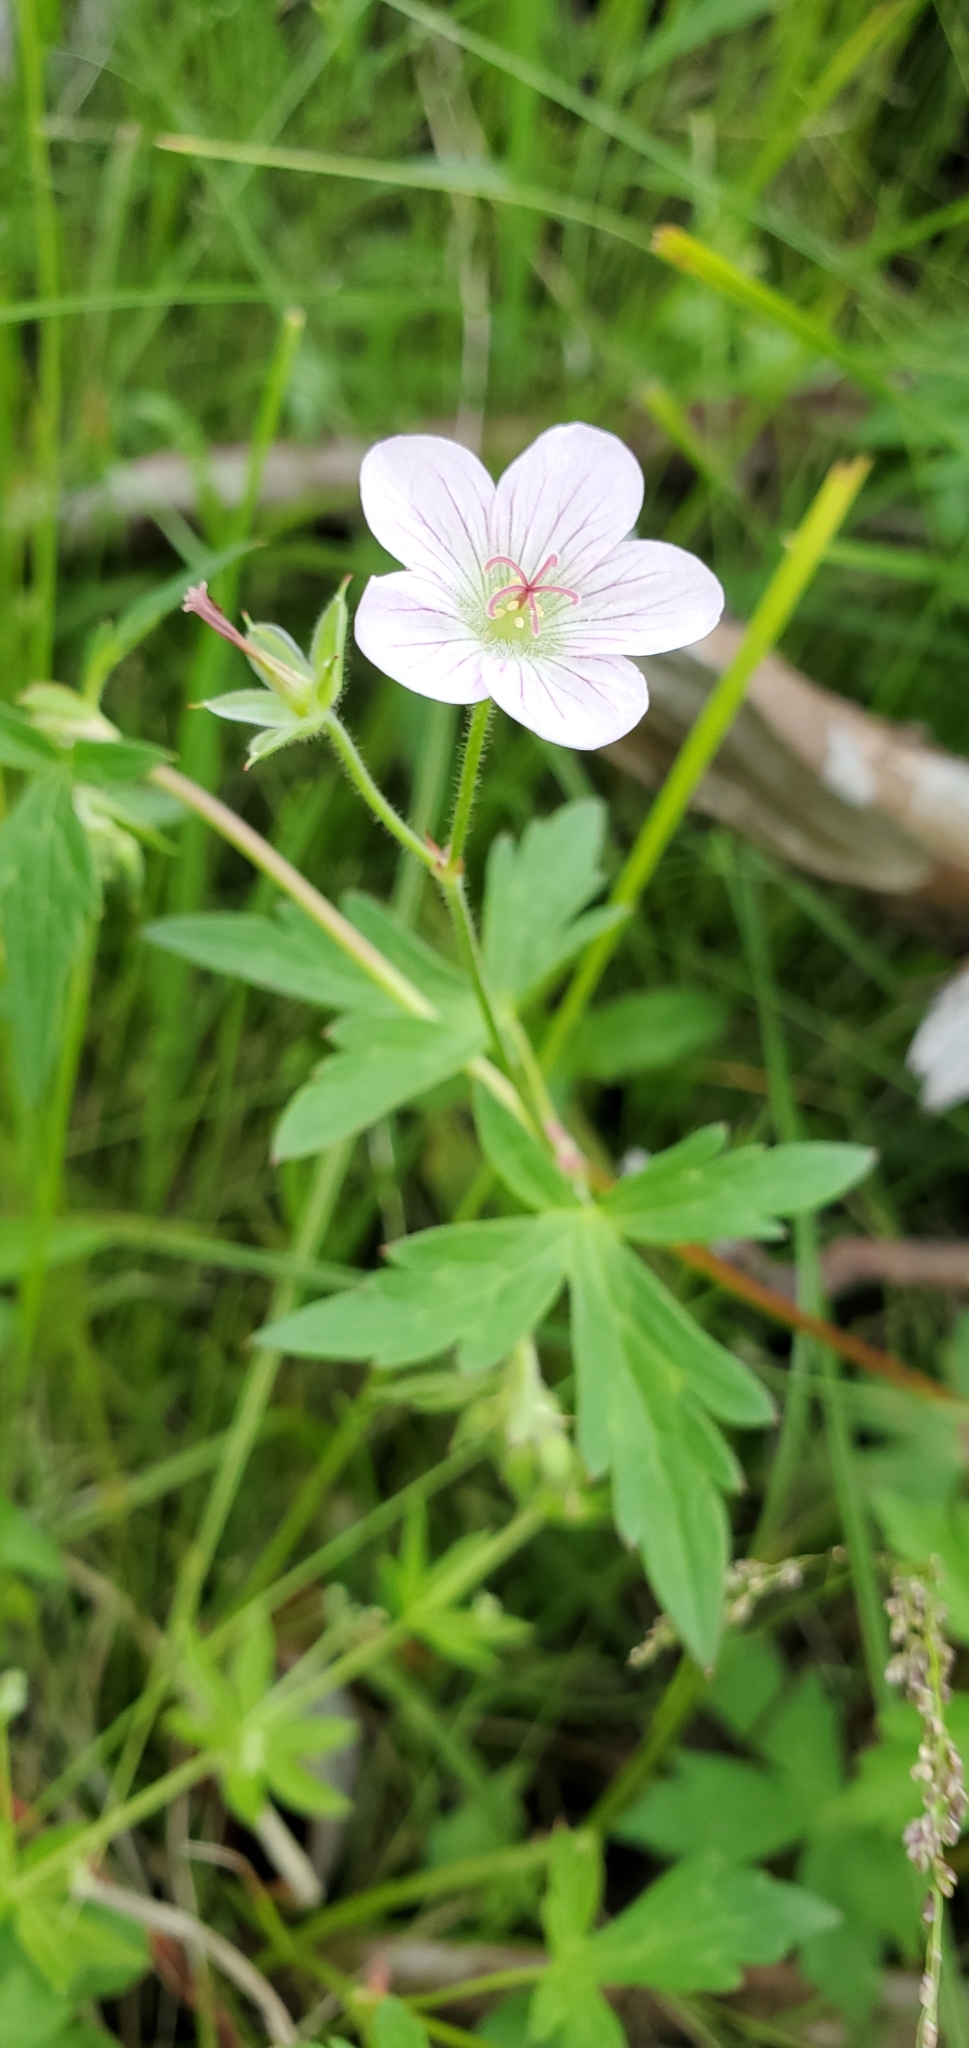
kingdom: Plantae
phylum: Tracheophyta
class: Magnoliopsida
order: Geraniales
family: Geraniaceae
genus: Geranium
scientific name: Geranium richardsonii
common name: Richardson's crane's-bill
